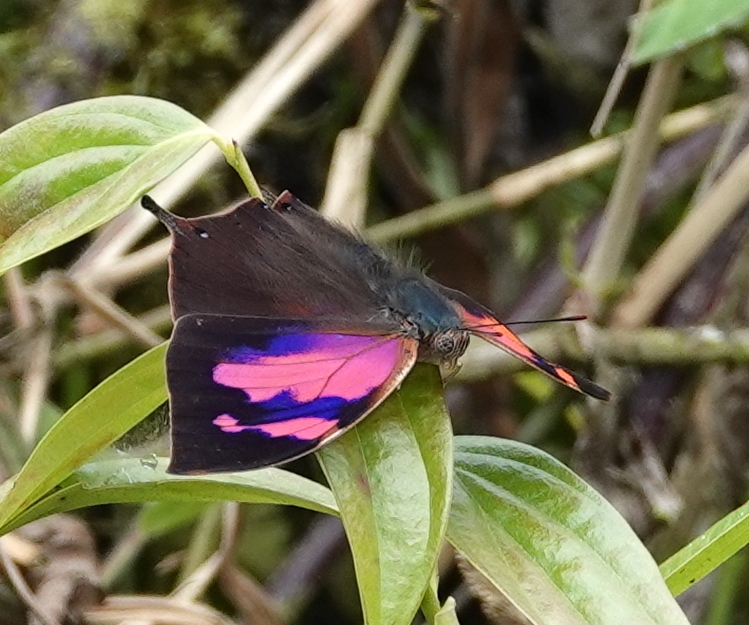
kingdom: Animalia
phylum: Arthropoda
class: Insecta
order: Lepidoptera
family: Nymphalidae
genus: Fountainea
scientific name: Fountainea
